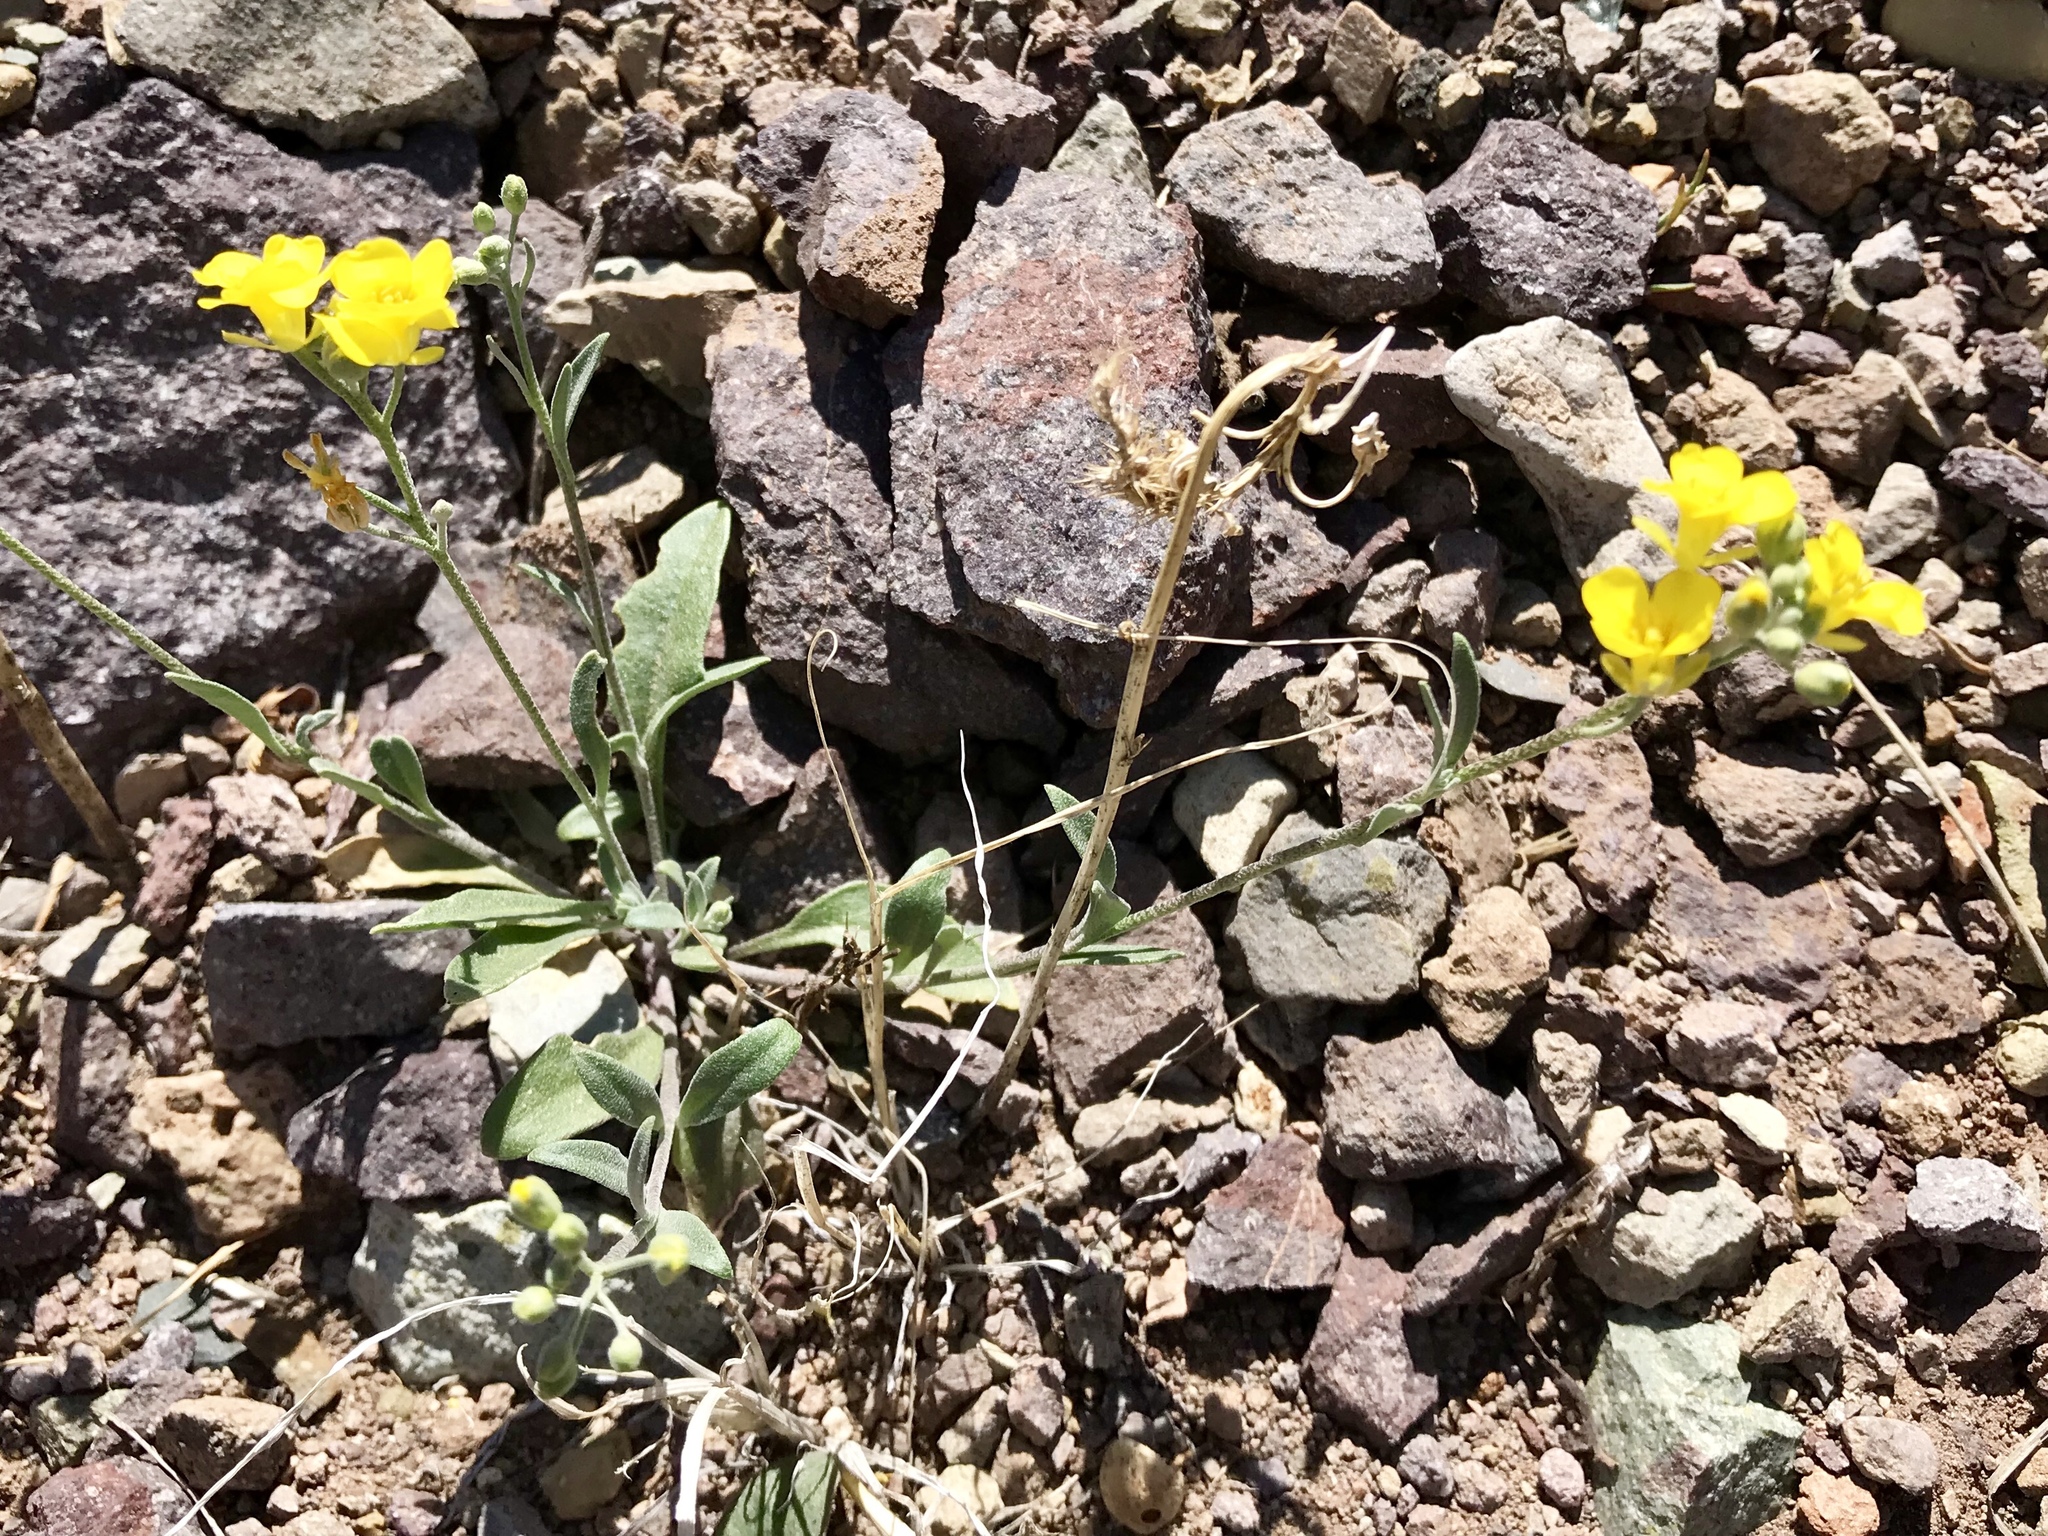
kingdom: Plantae
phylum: Tracheophyta
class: Magnoliopsida
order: Brassicales
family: Brassicaceae
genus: Physaria
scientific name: Physaria gordonii
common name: Gordon's bladderpod
